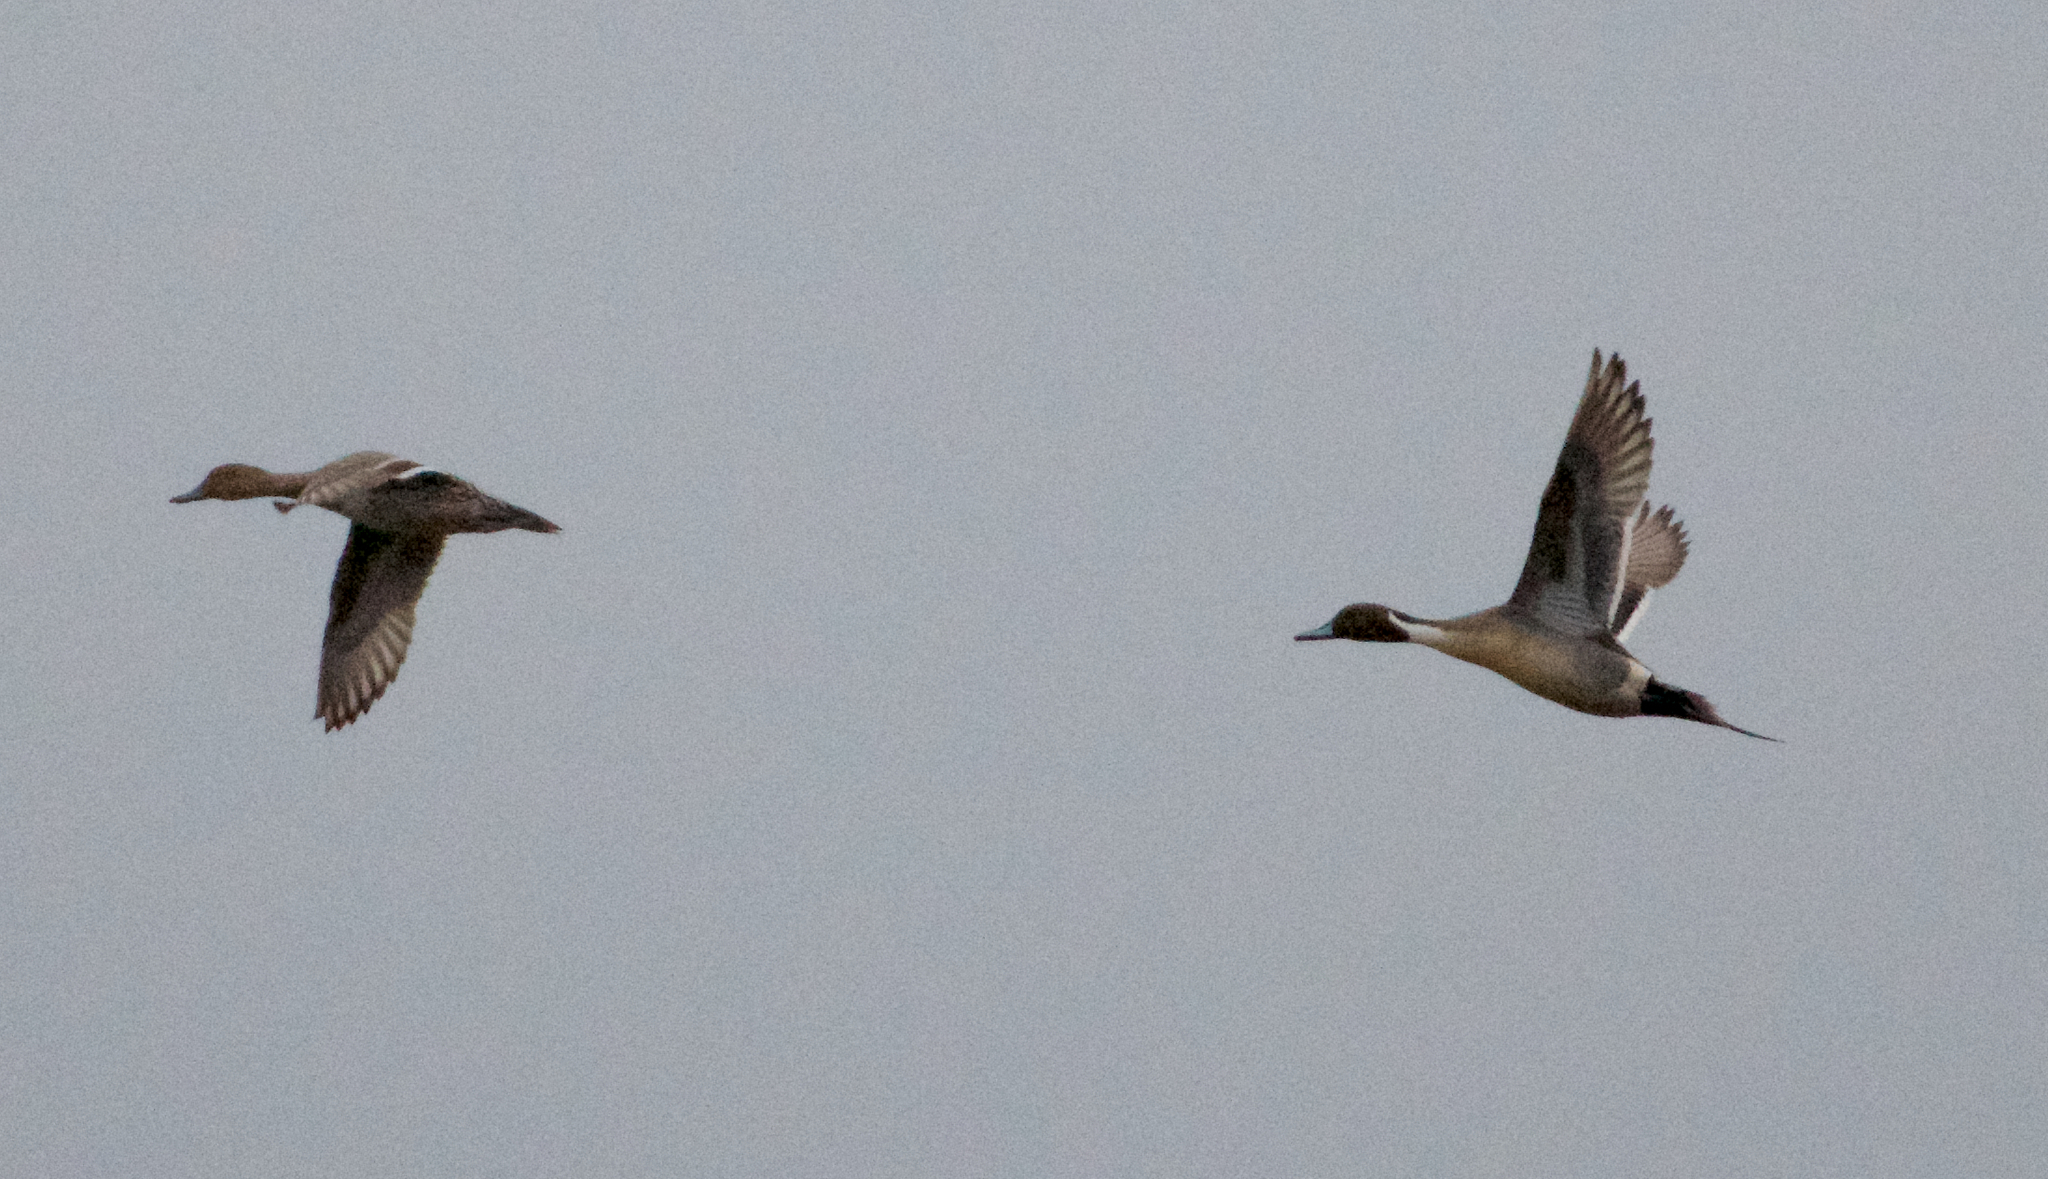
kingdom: Animalia
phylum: Chordata
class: Aves
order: Anseriformes
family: Anatidae
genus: Anas
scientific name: Anas acuta
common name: Northern pintail
